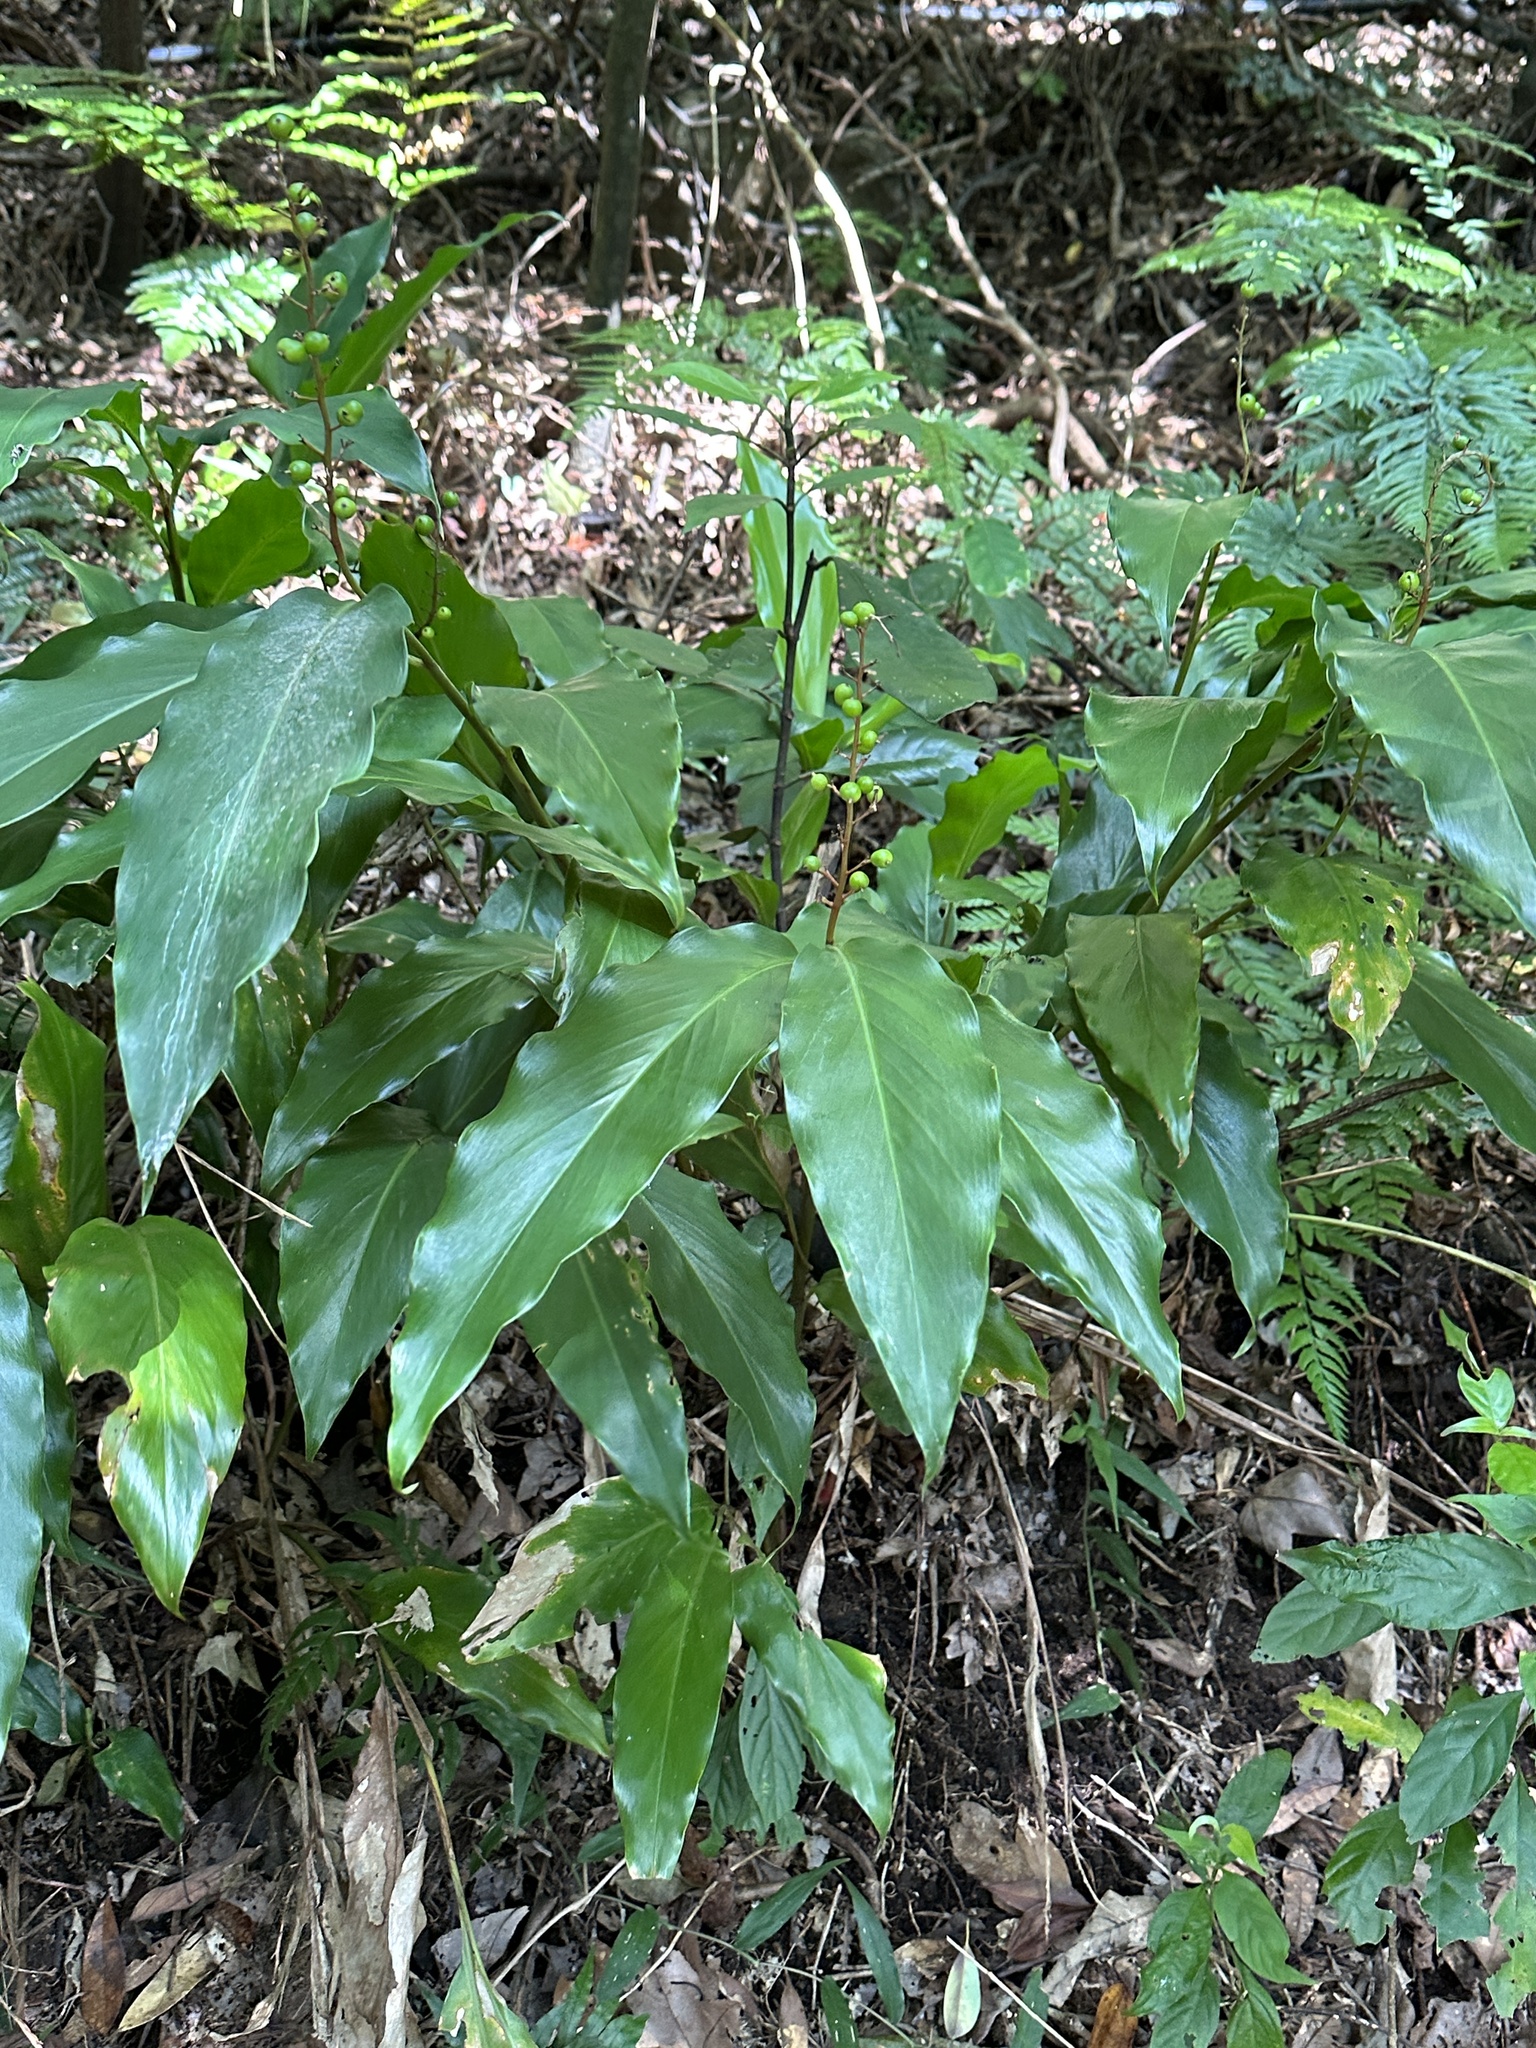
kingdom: Plantae
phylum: Tracheophyta
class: Liliopsida
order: Zingiberales
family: Zingiberaceae
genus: Alpinia
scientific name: Alpinia intermedia
